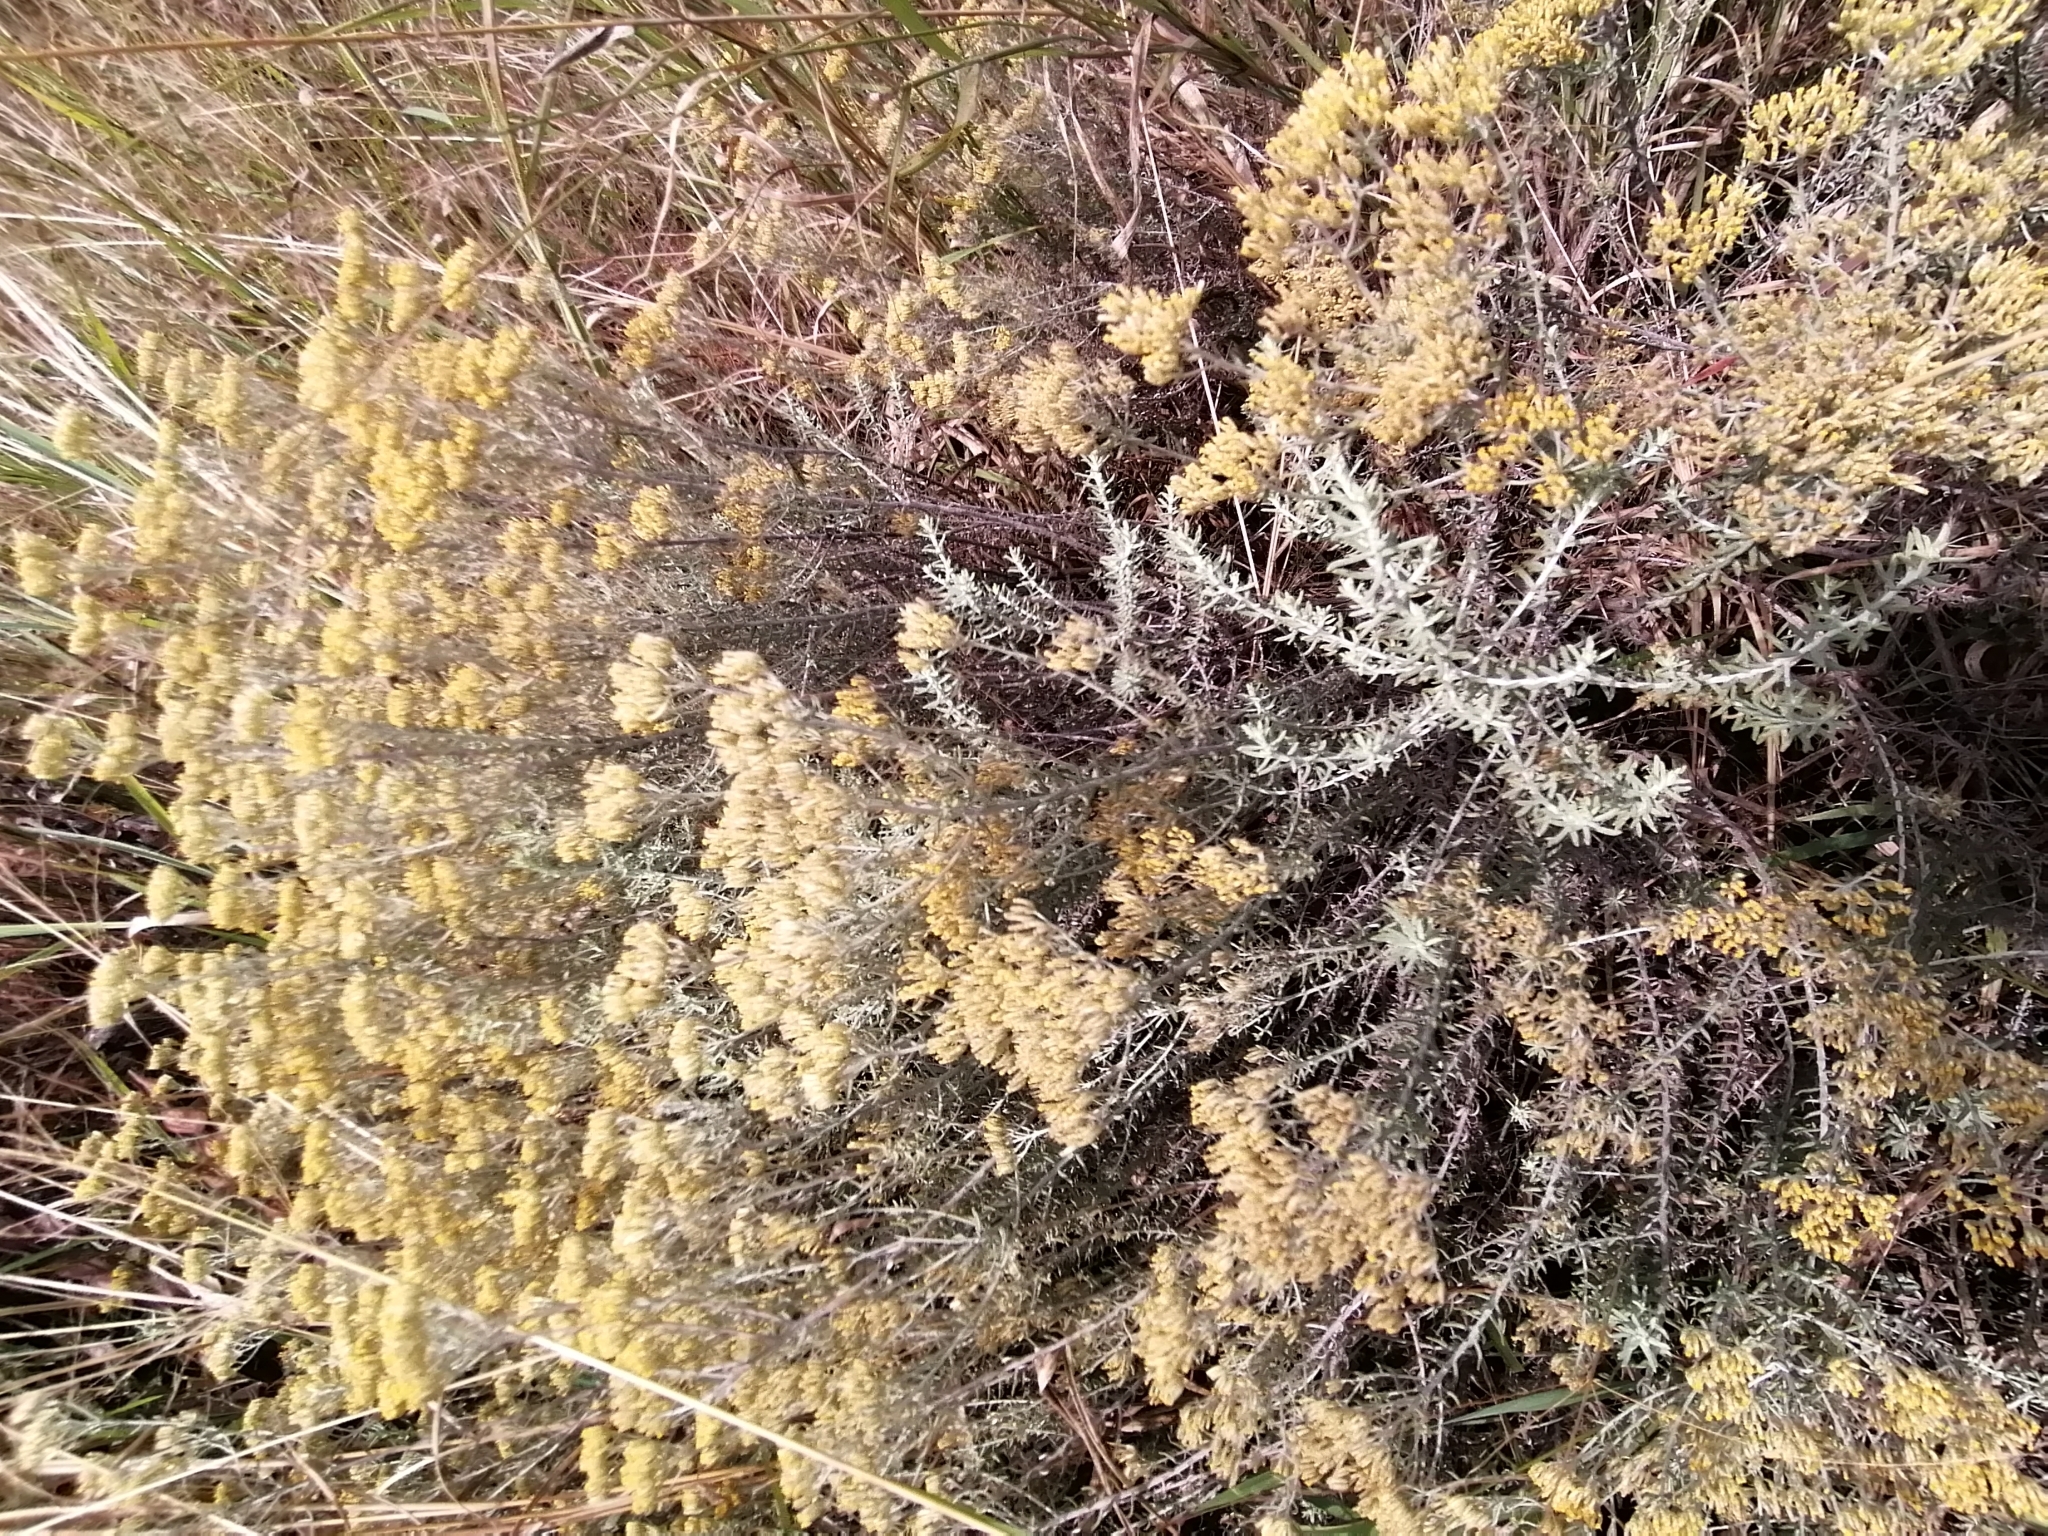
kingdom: Plantae
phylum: Tracheophyta
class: Magnoliopsida
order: Asterales
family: Asteraceae
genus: Helichrysum
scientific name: Helichrysum kraussii
